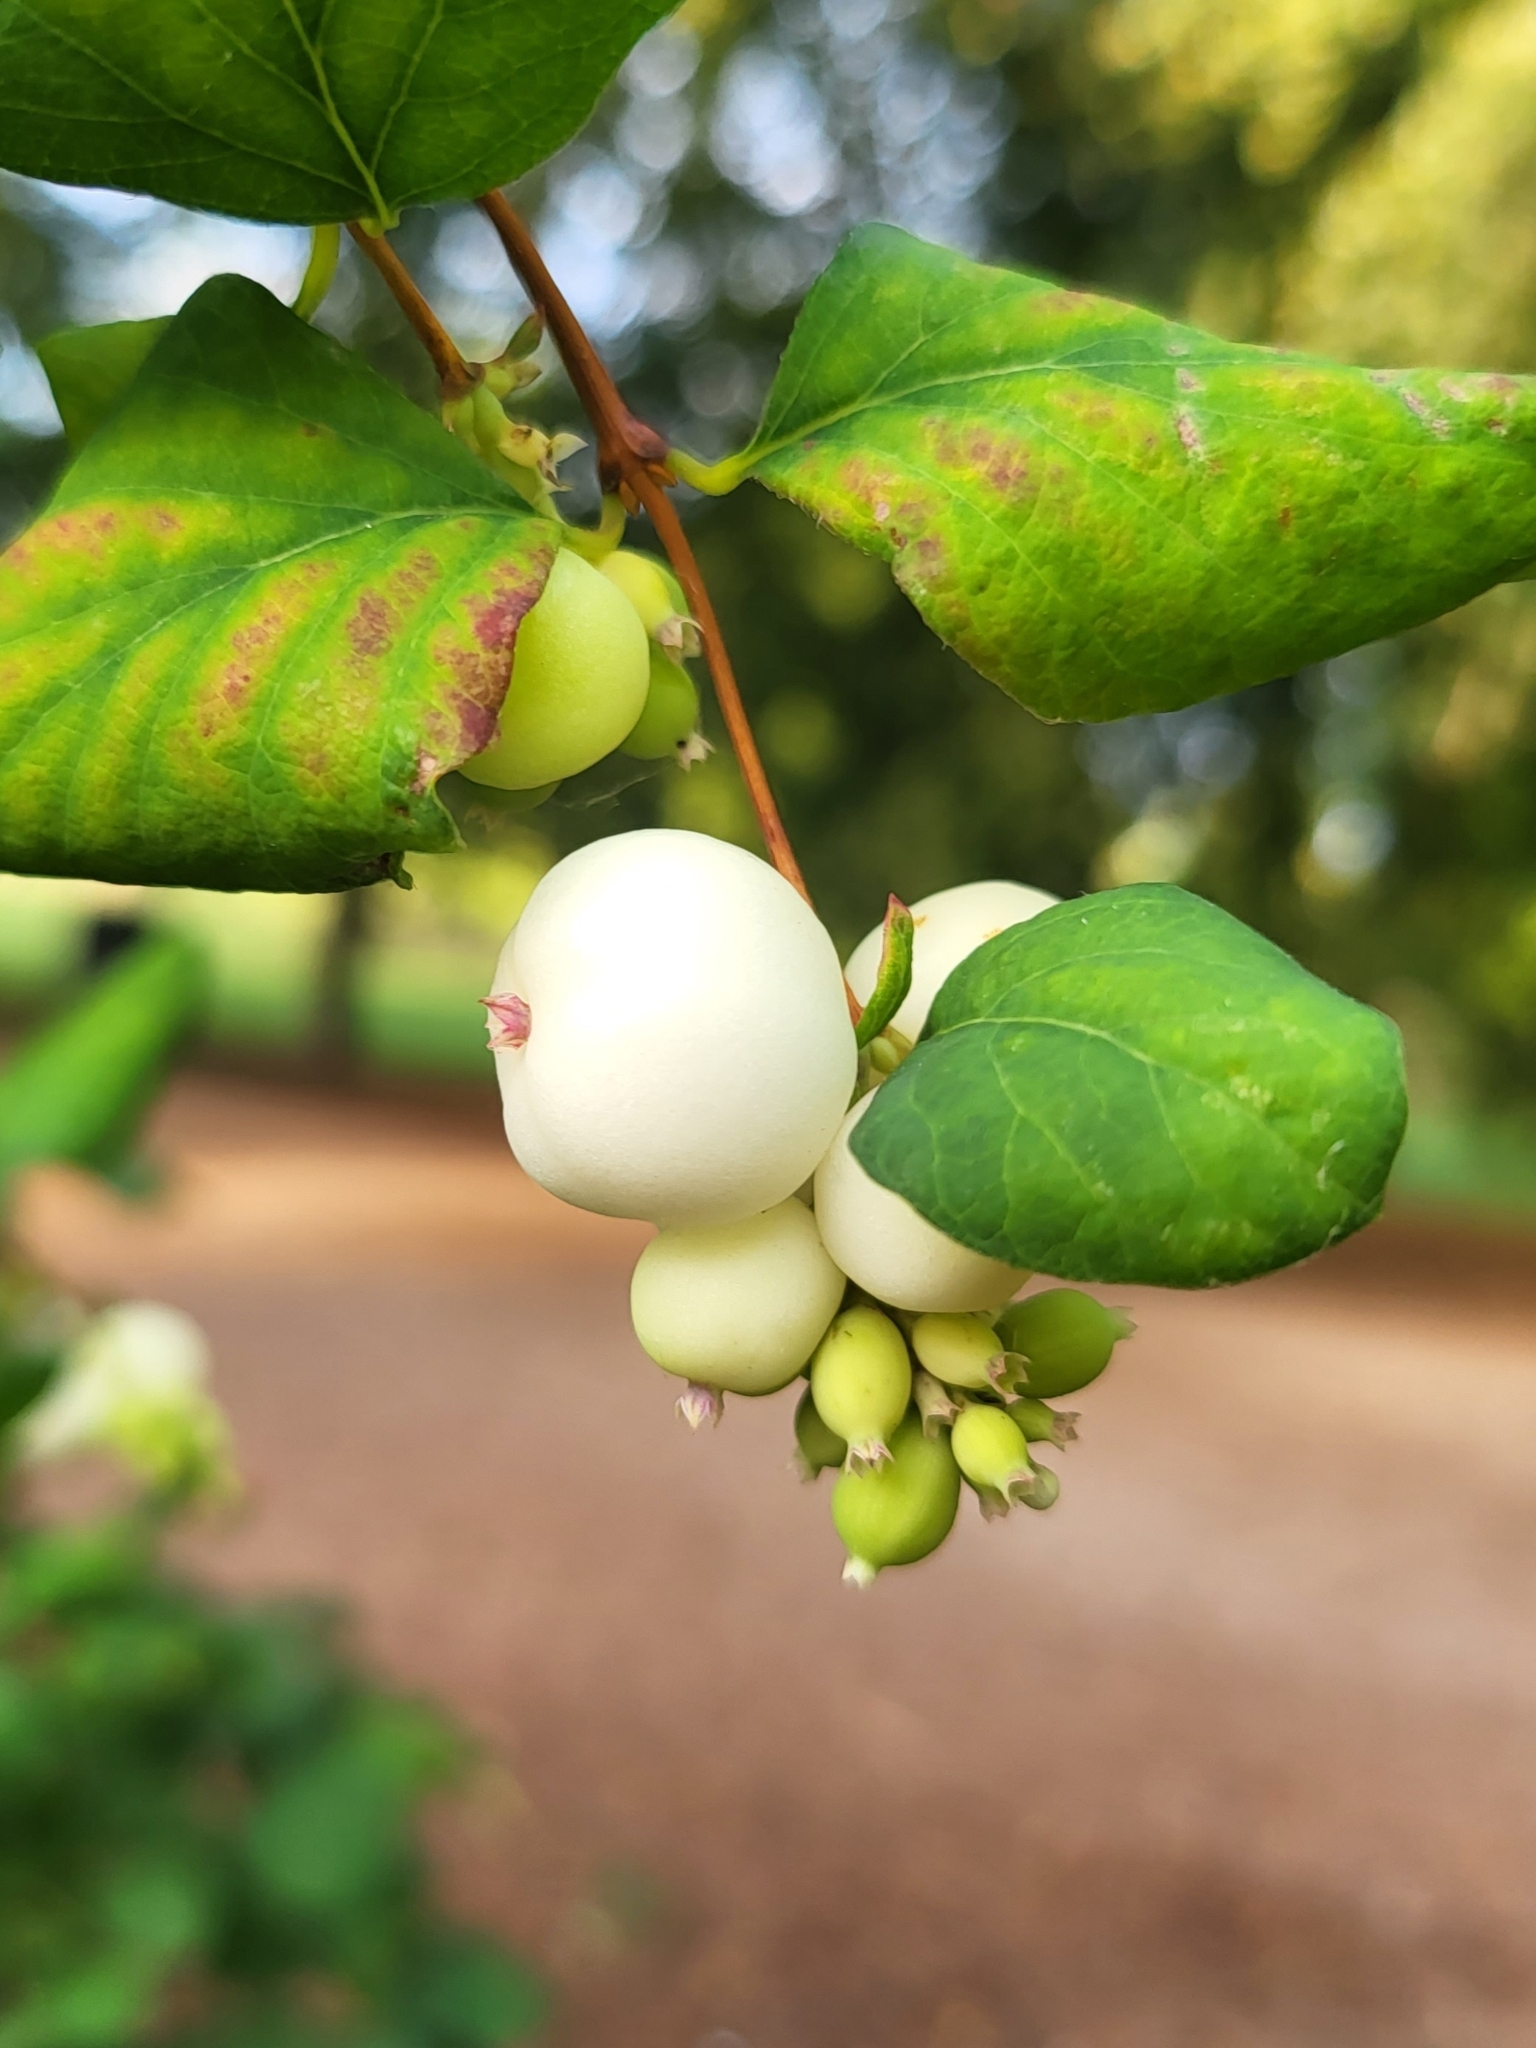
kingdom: Plantae
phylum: Tracheophyta
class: Magnoliopsida
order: Dipsacales
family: Caprifoliaceae
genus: Symphoricarpos
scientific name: Symphoricarpos albus
